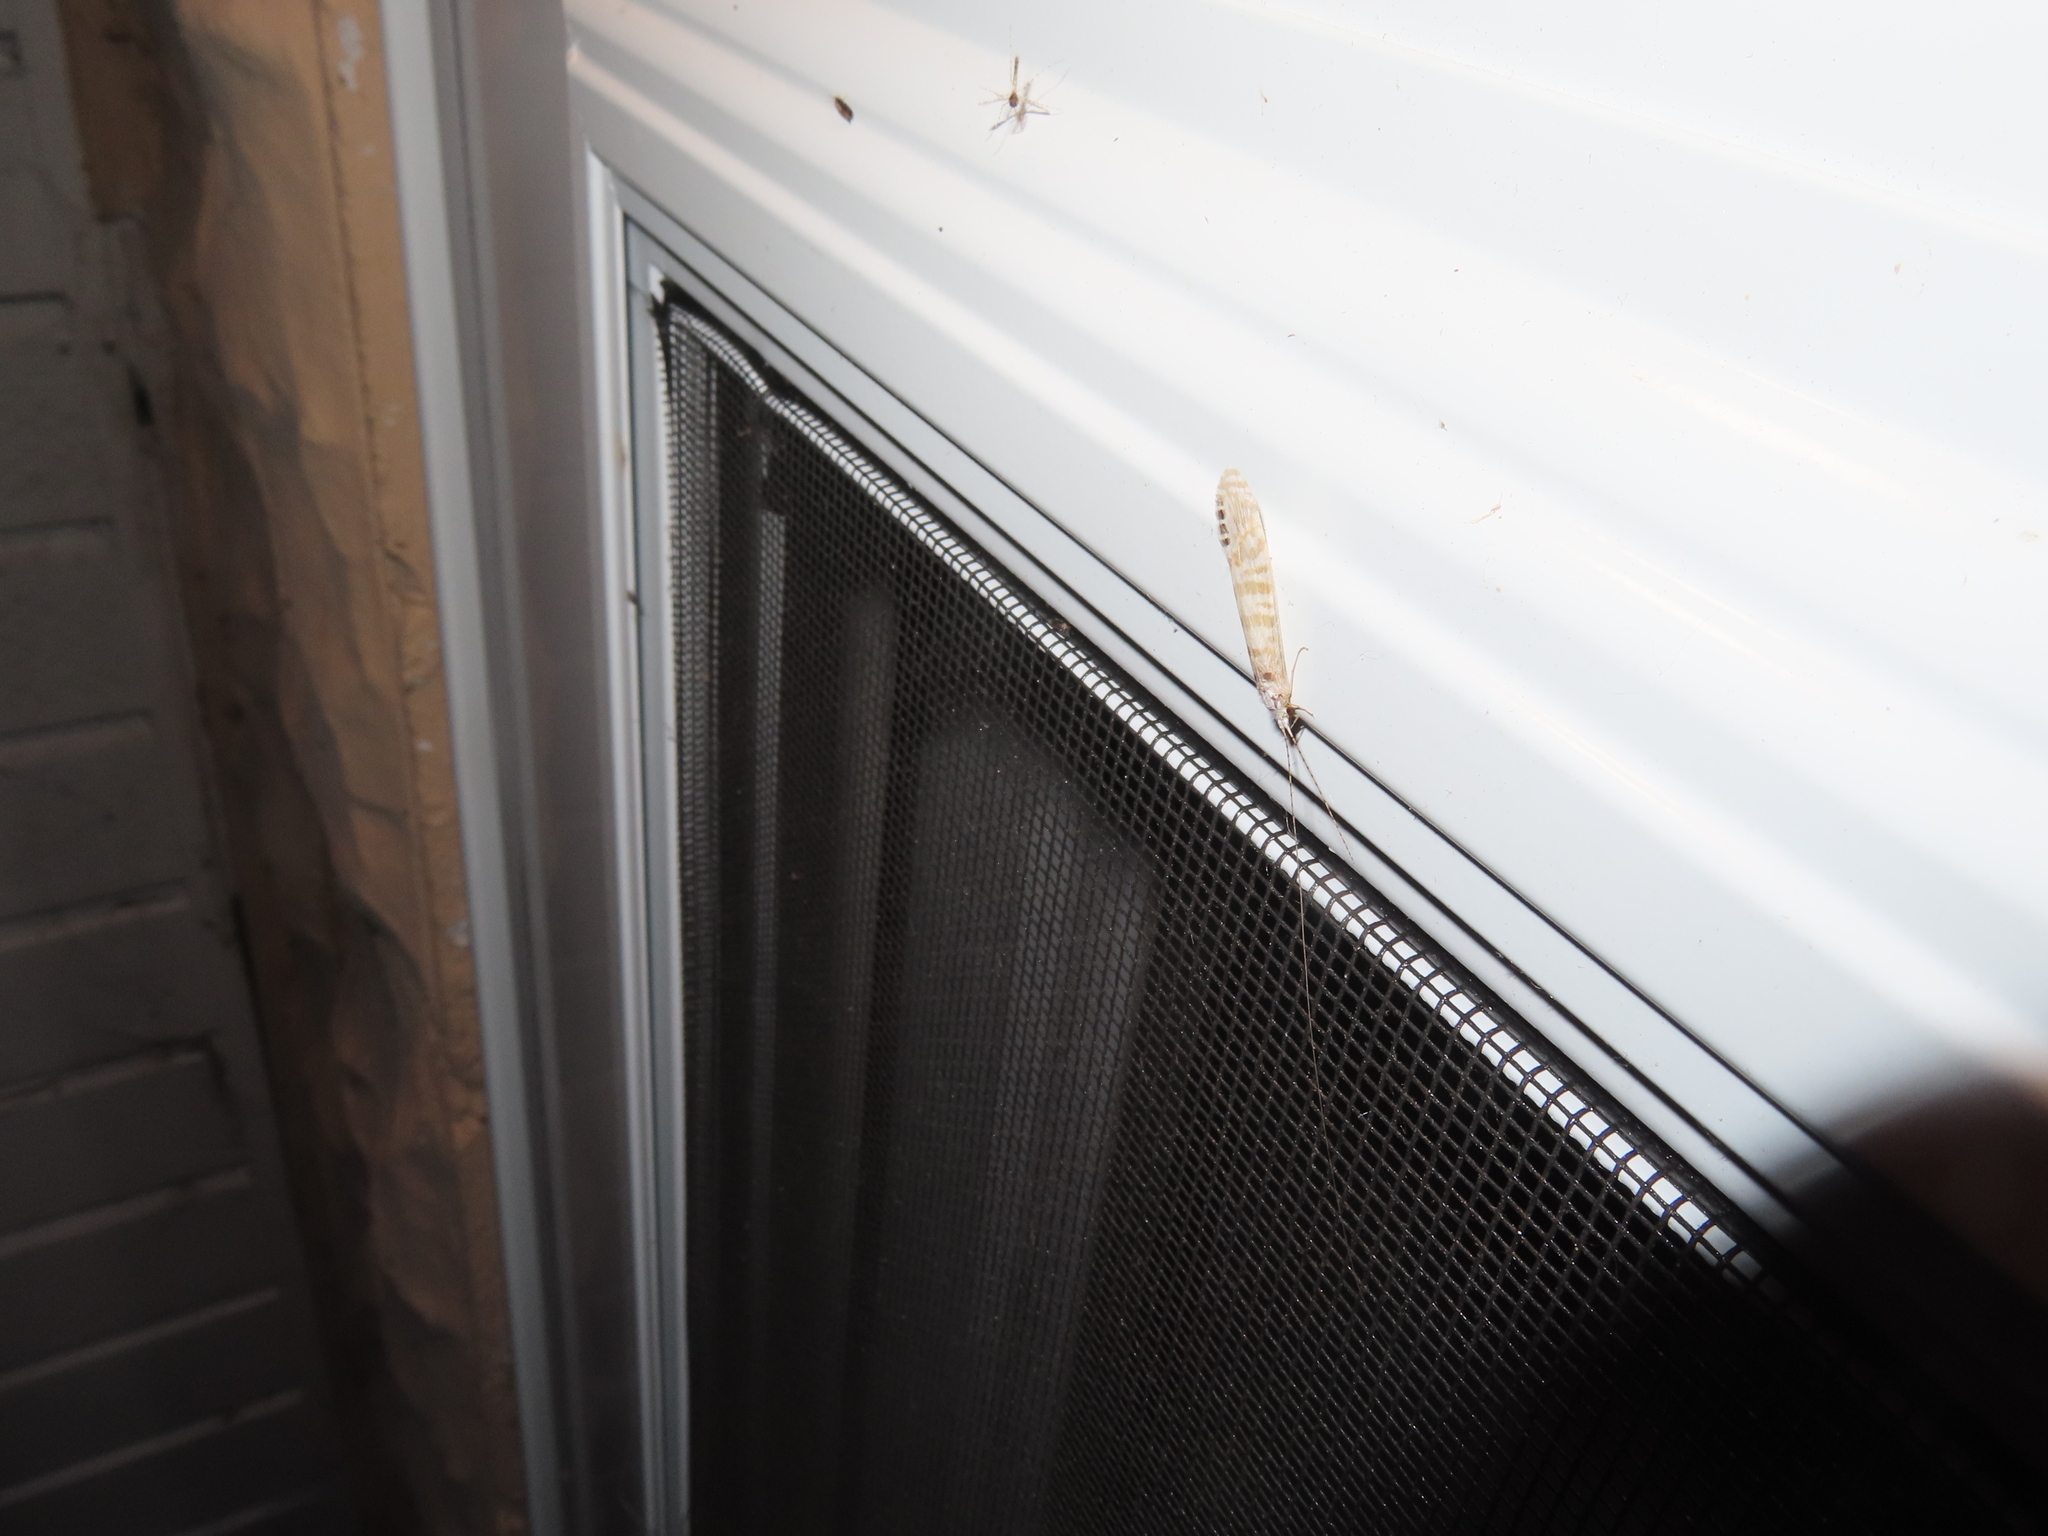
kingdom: Animalia
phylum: Arthropoda
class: Insecta
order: Trichoptera
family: Leptoceridae
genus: Nectopsyche
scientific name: Nectopsyche exquisita
